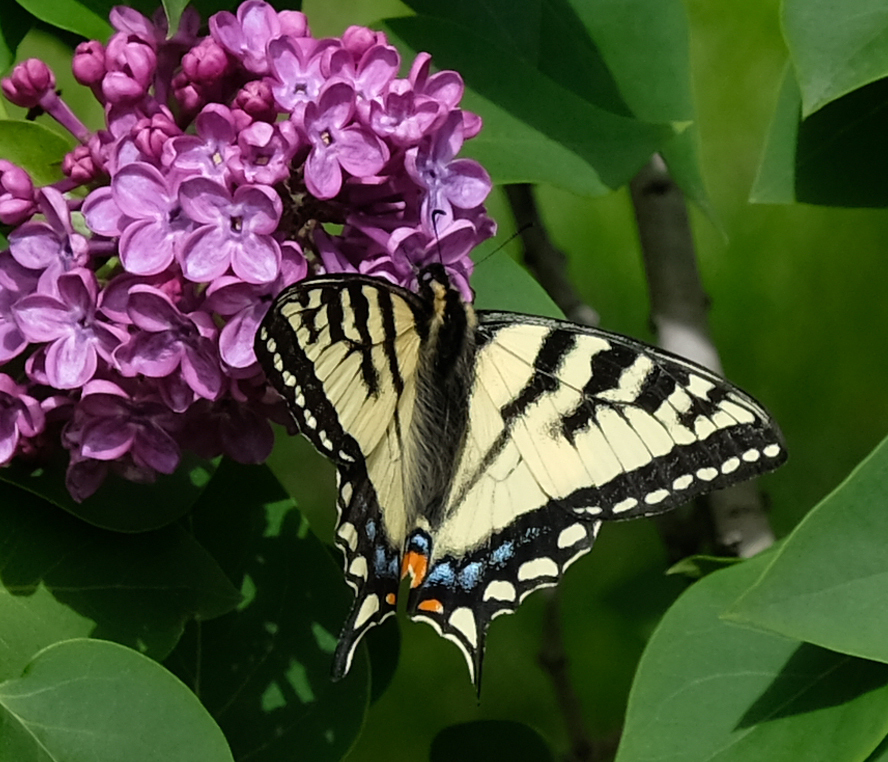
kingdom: Animalia
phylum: Arthropoda
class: Insecta
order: Lepidoptera
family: Papilionidae
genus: Papilio
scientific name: Papilio canadensis
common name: Canadian tiger swallowtail
